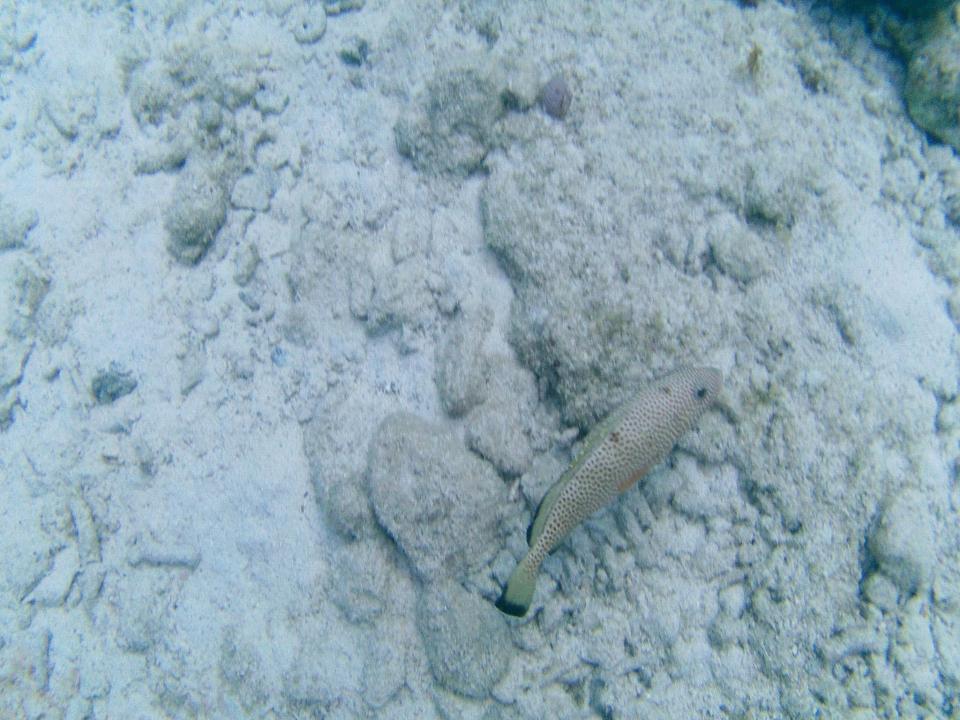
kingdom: Animalia
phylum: Chordata
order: Perciformes
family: Serranidae
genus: Epinephelus
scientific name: Epinephelus guttatus
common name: Red hind
